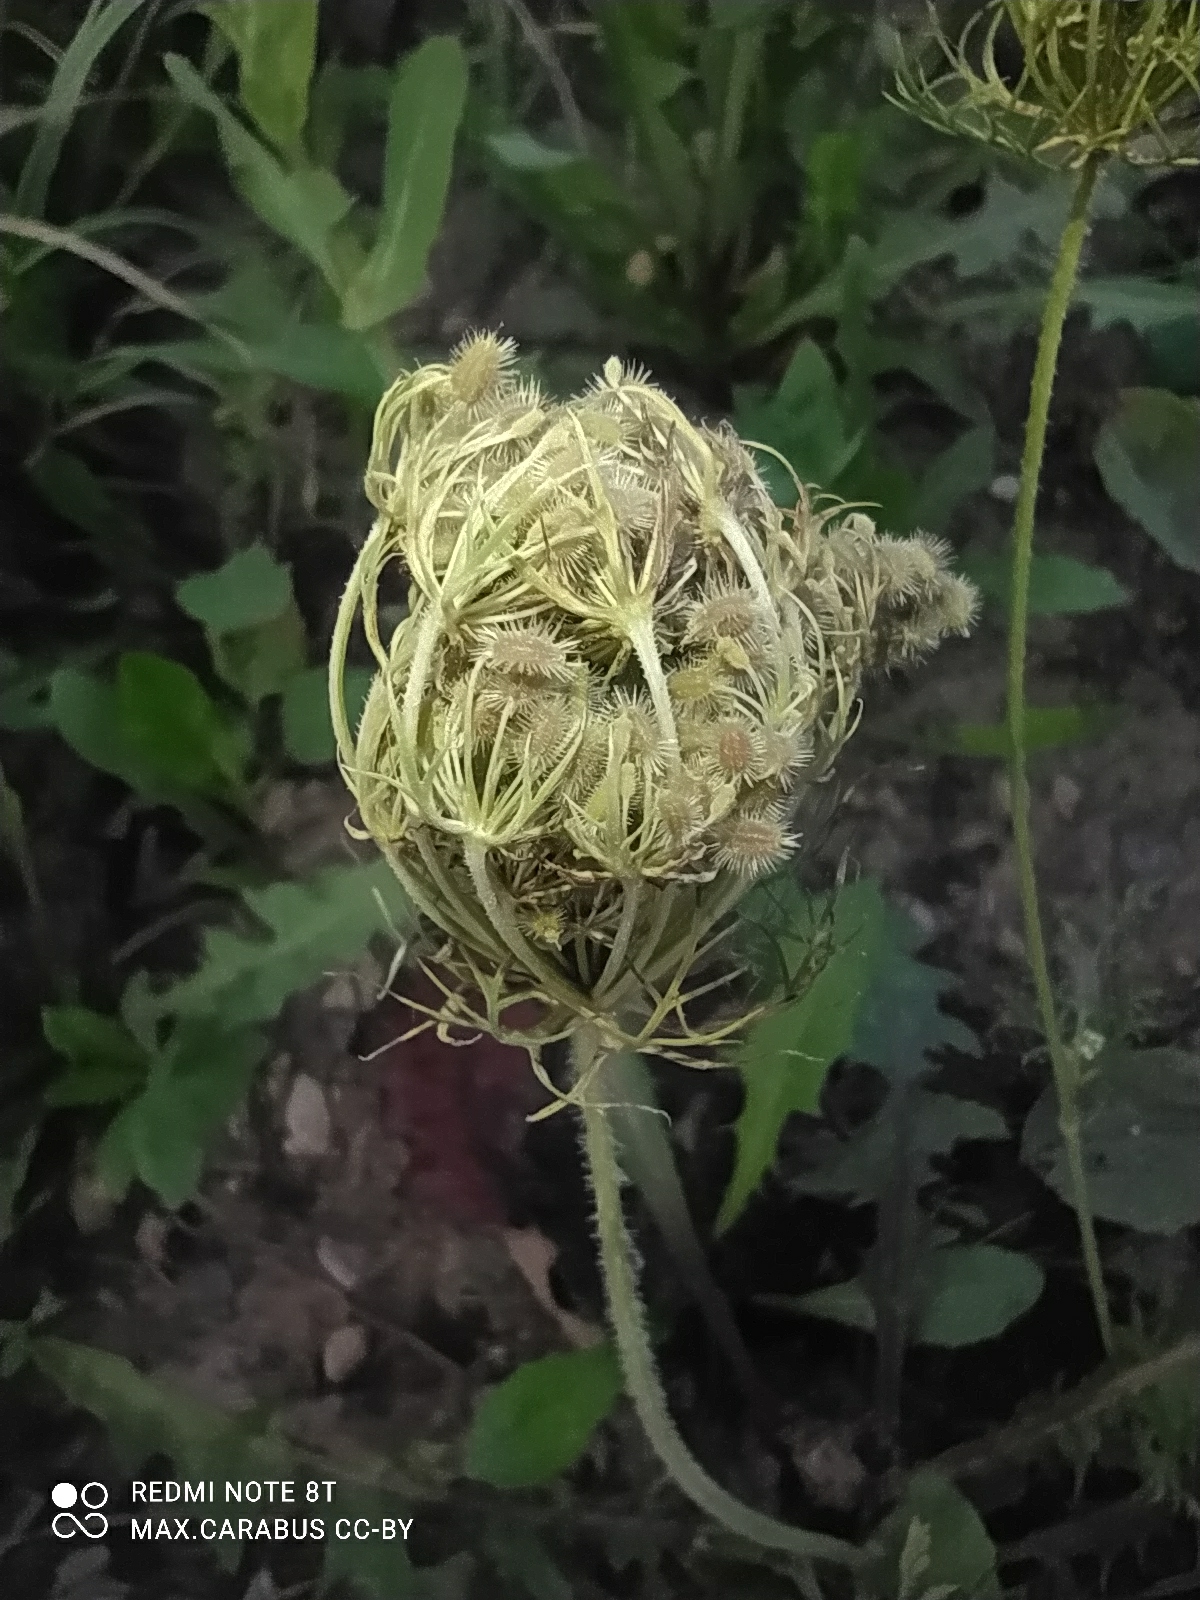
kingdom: Plantae
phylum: Tracheophyta
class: Magnoliopsida
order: Apiales
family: Apiaceae
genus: Daucus
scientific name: Daucus carota
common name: Wild carrot
